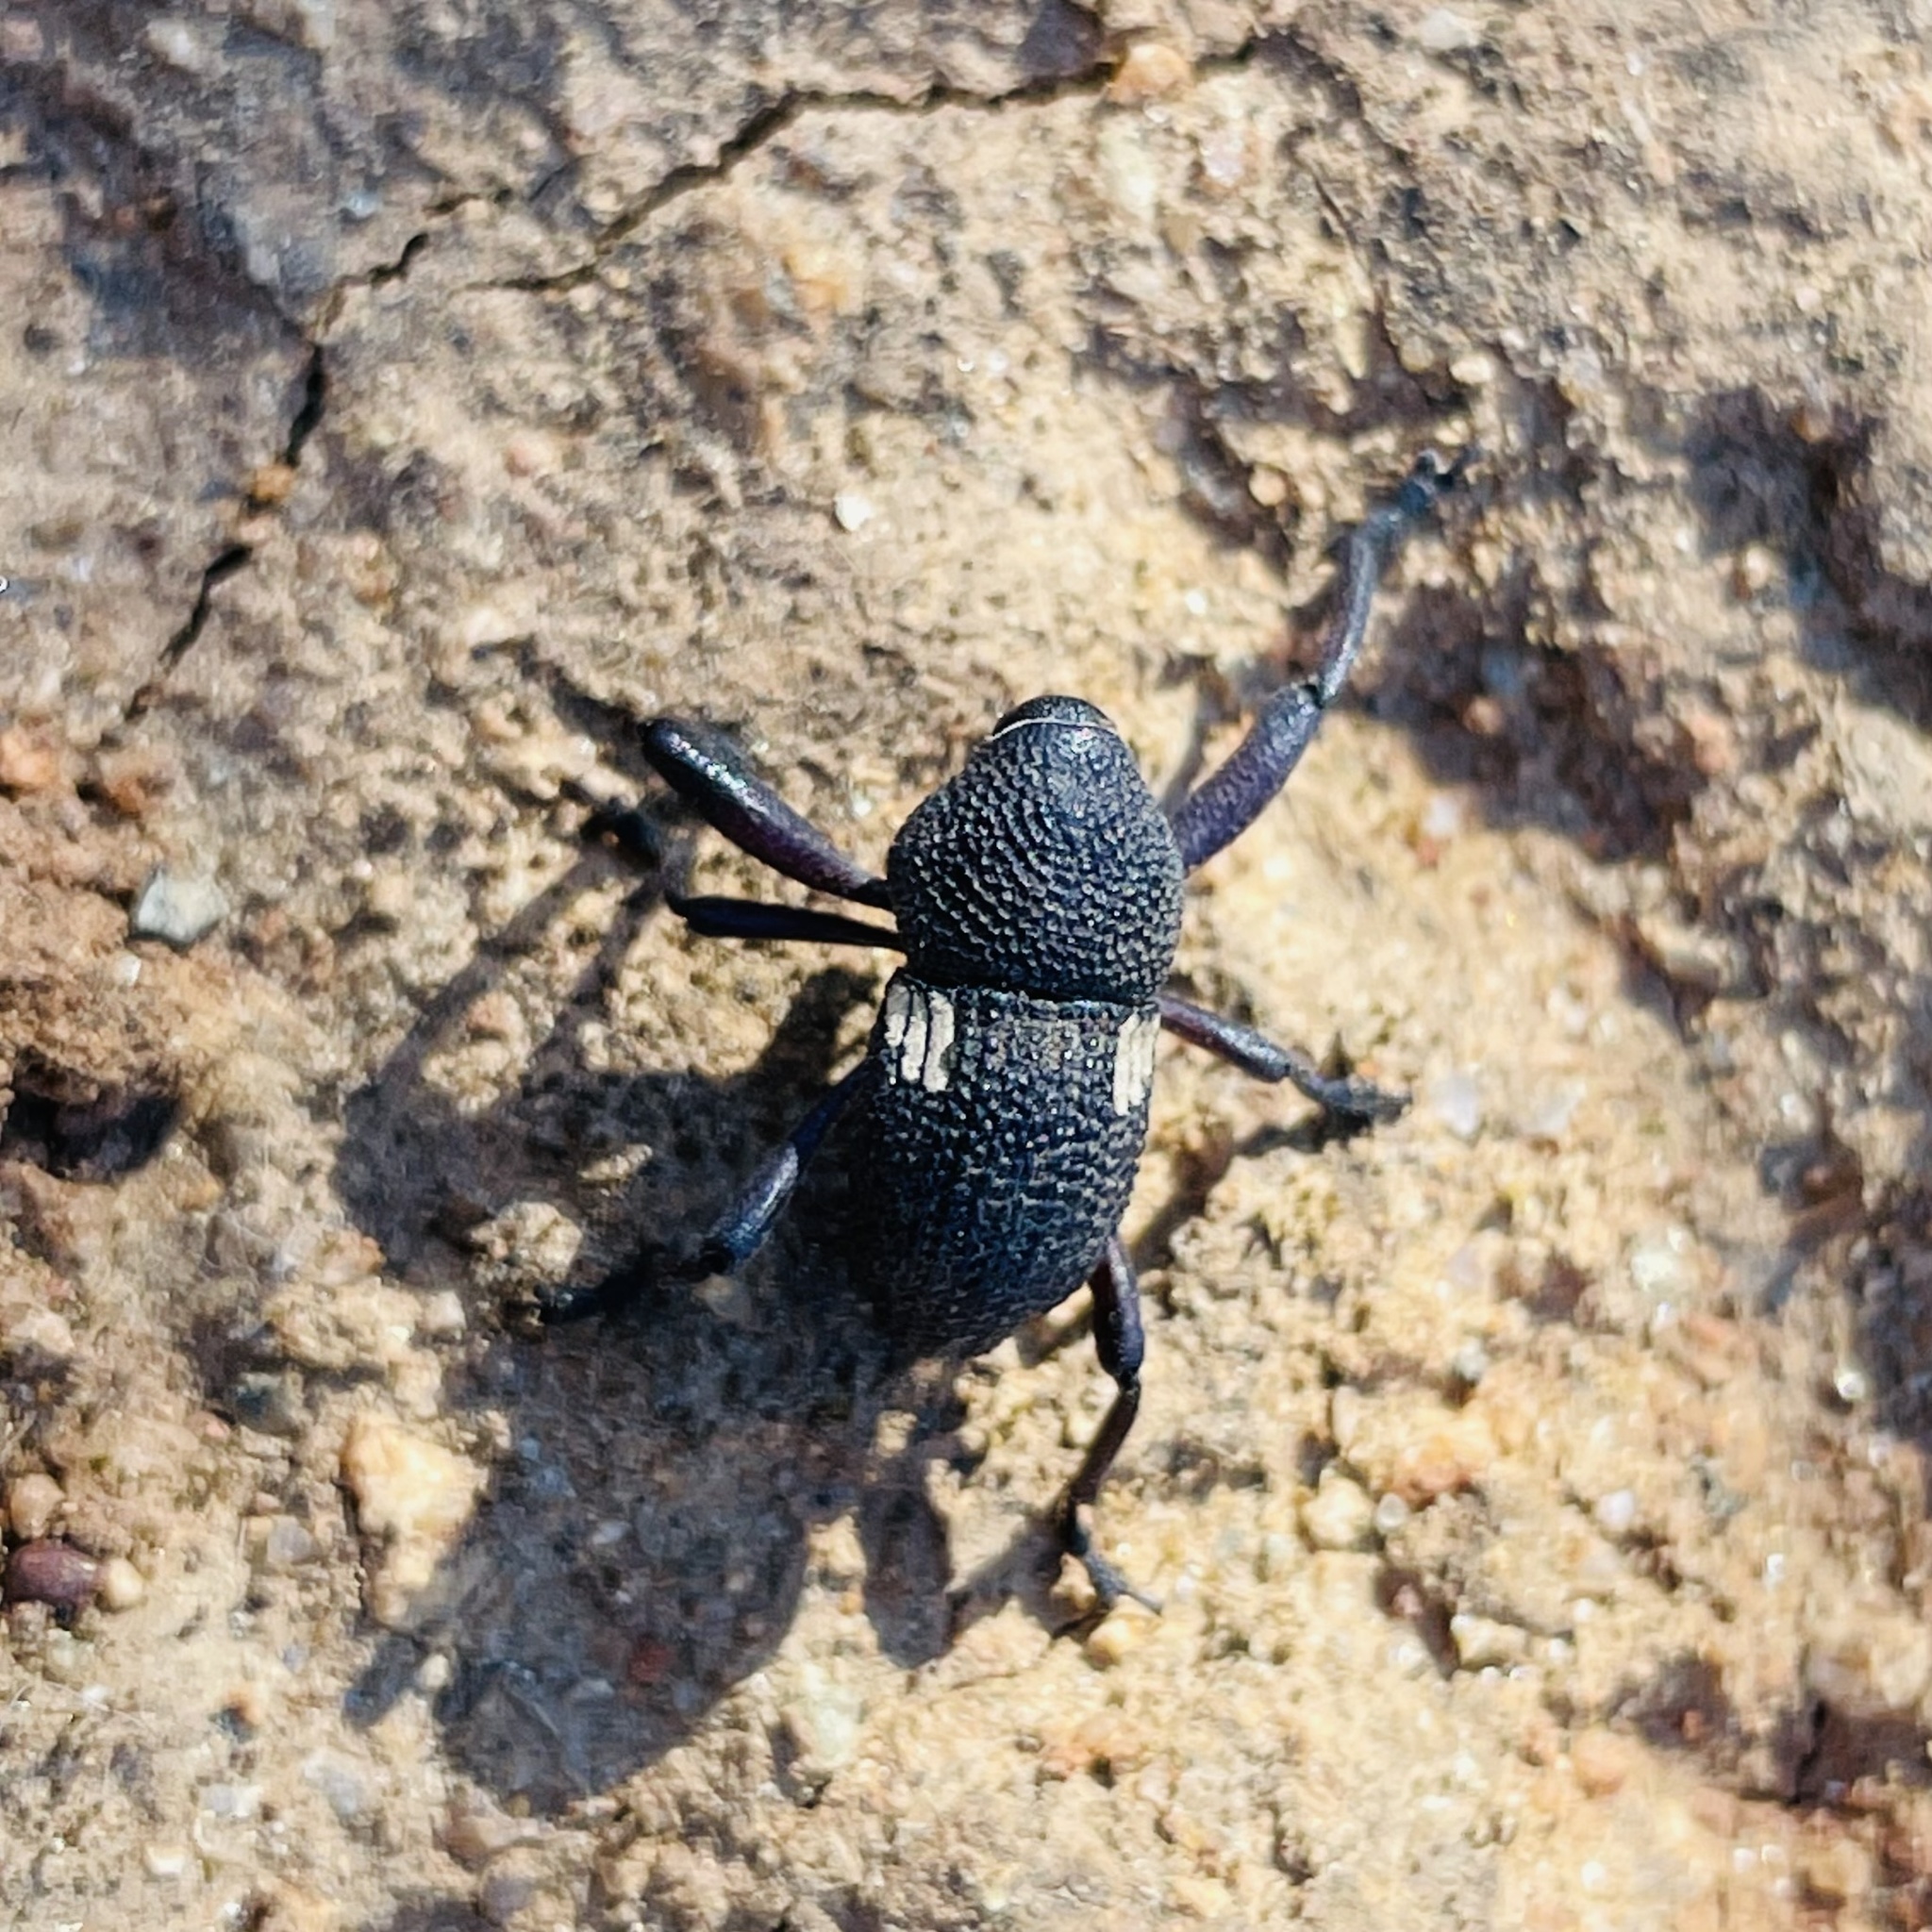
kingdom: Animalia
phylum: Arthropoda
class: Insecta
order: Coleoptera
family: Curculionidae
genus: Rhyephenes
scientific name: Rhyephenes humeralis
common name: Araè±ita chilena del pino
